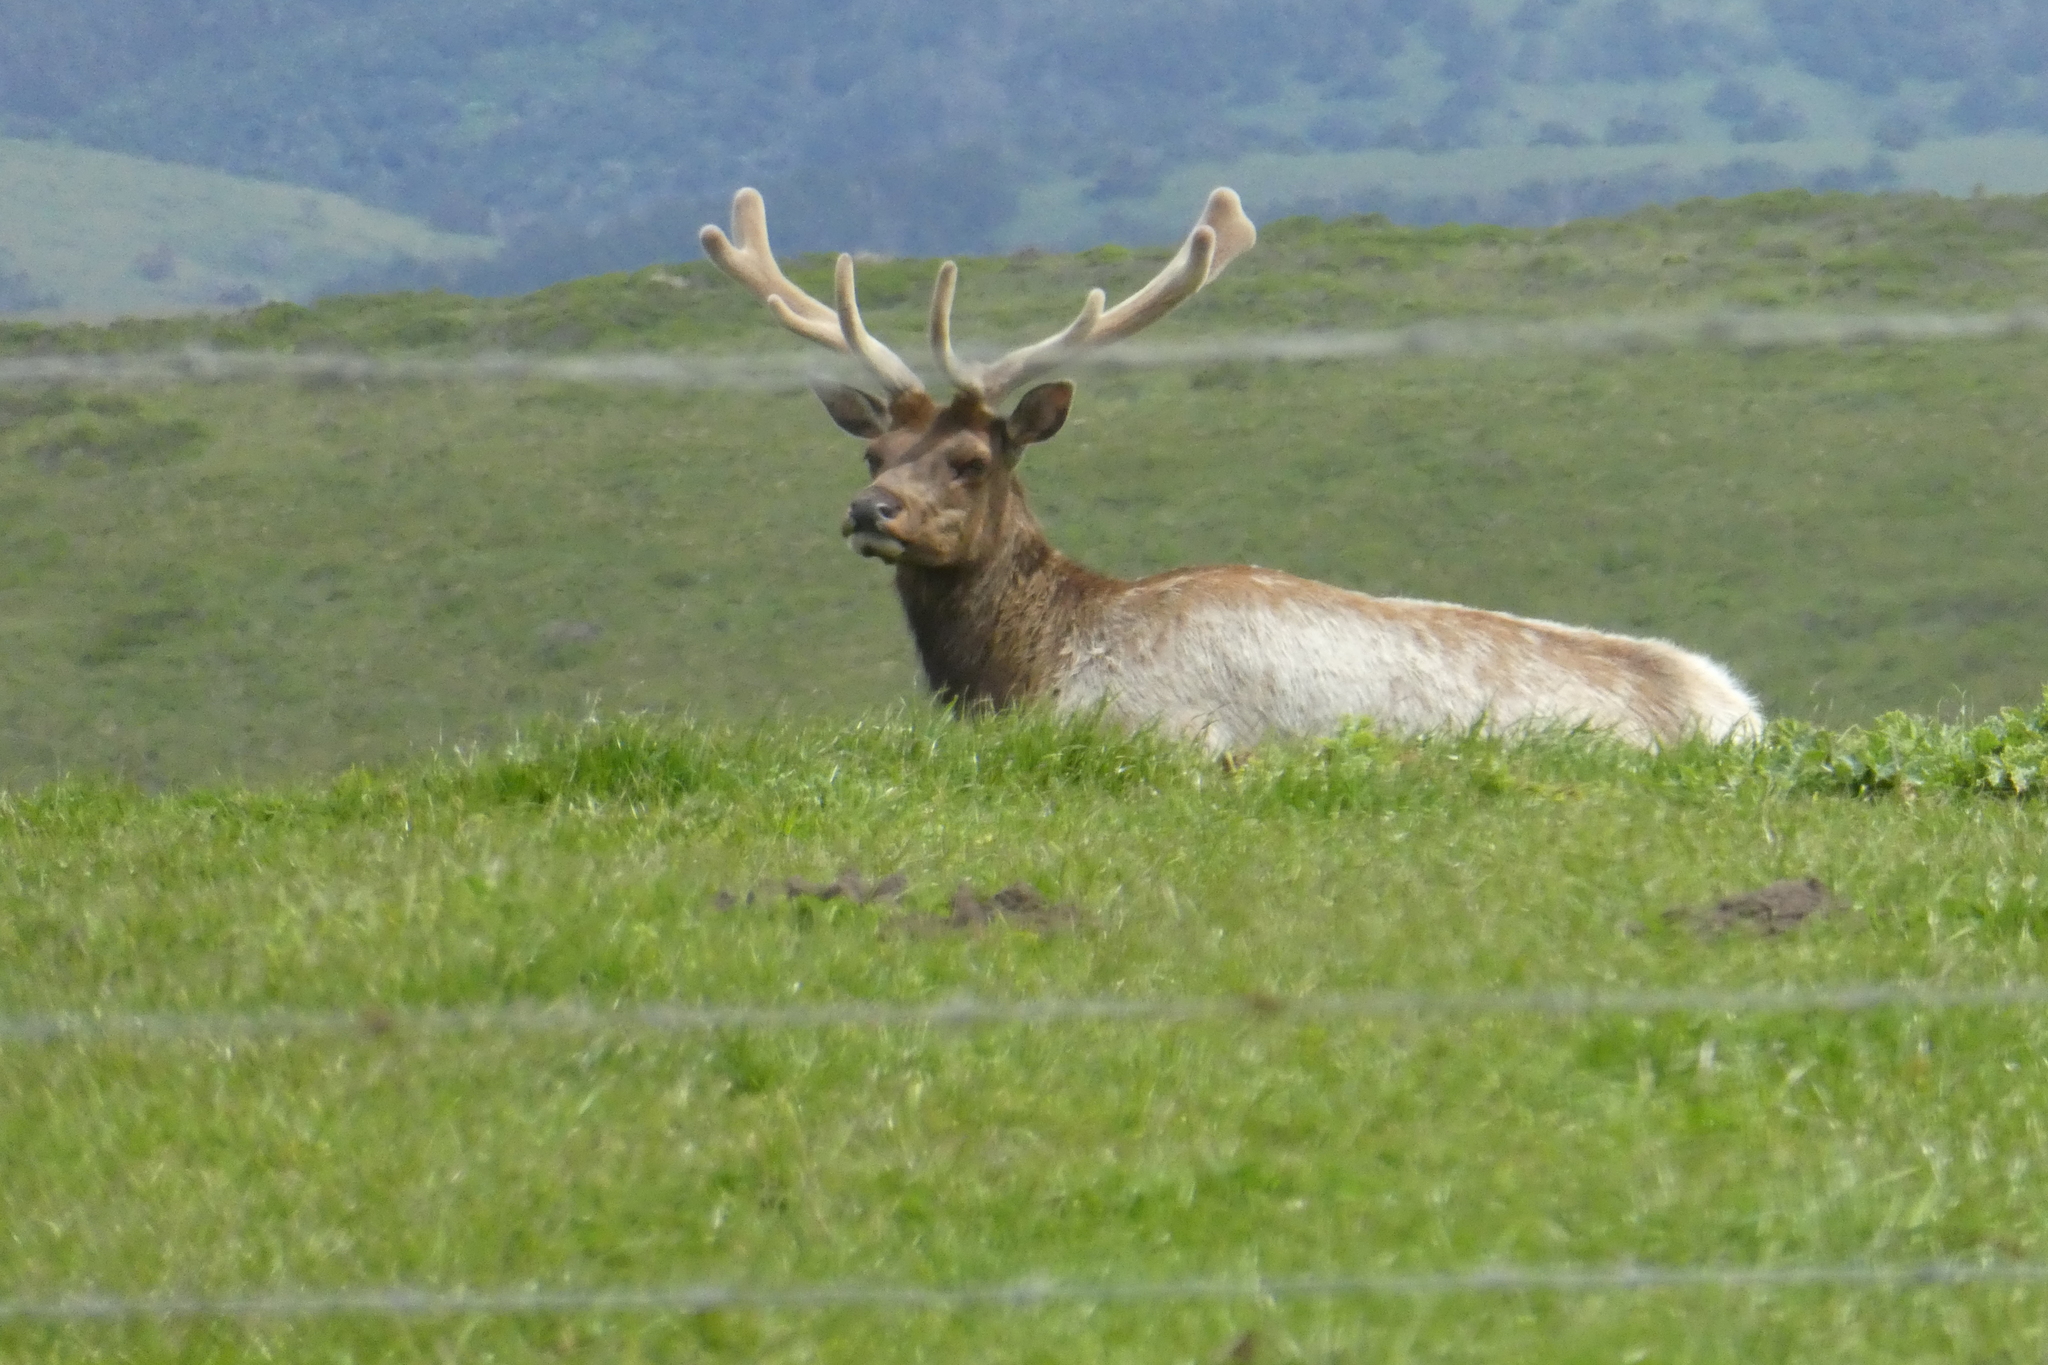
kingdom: Animalia
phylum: Chordata
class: Mammalia
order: Artiodactyla
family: Cervidae
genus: Cervus
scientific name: Cervus elaphus
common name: Red deer
